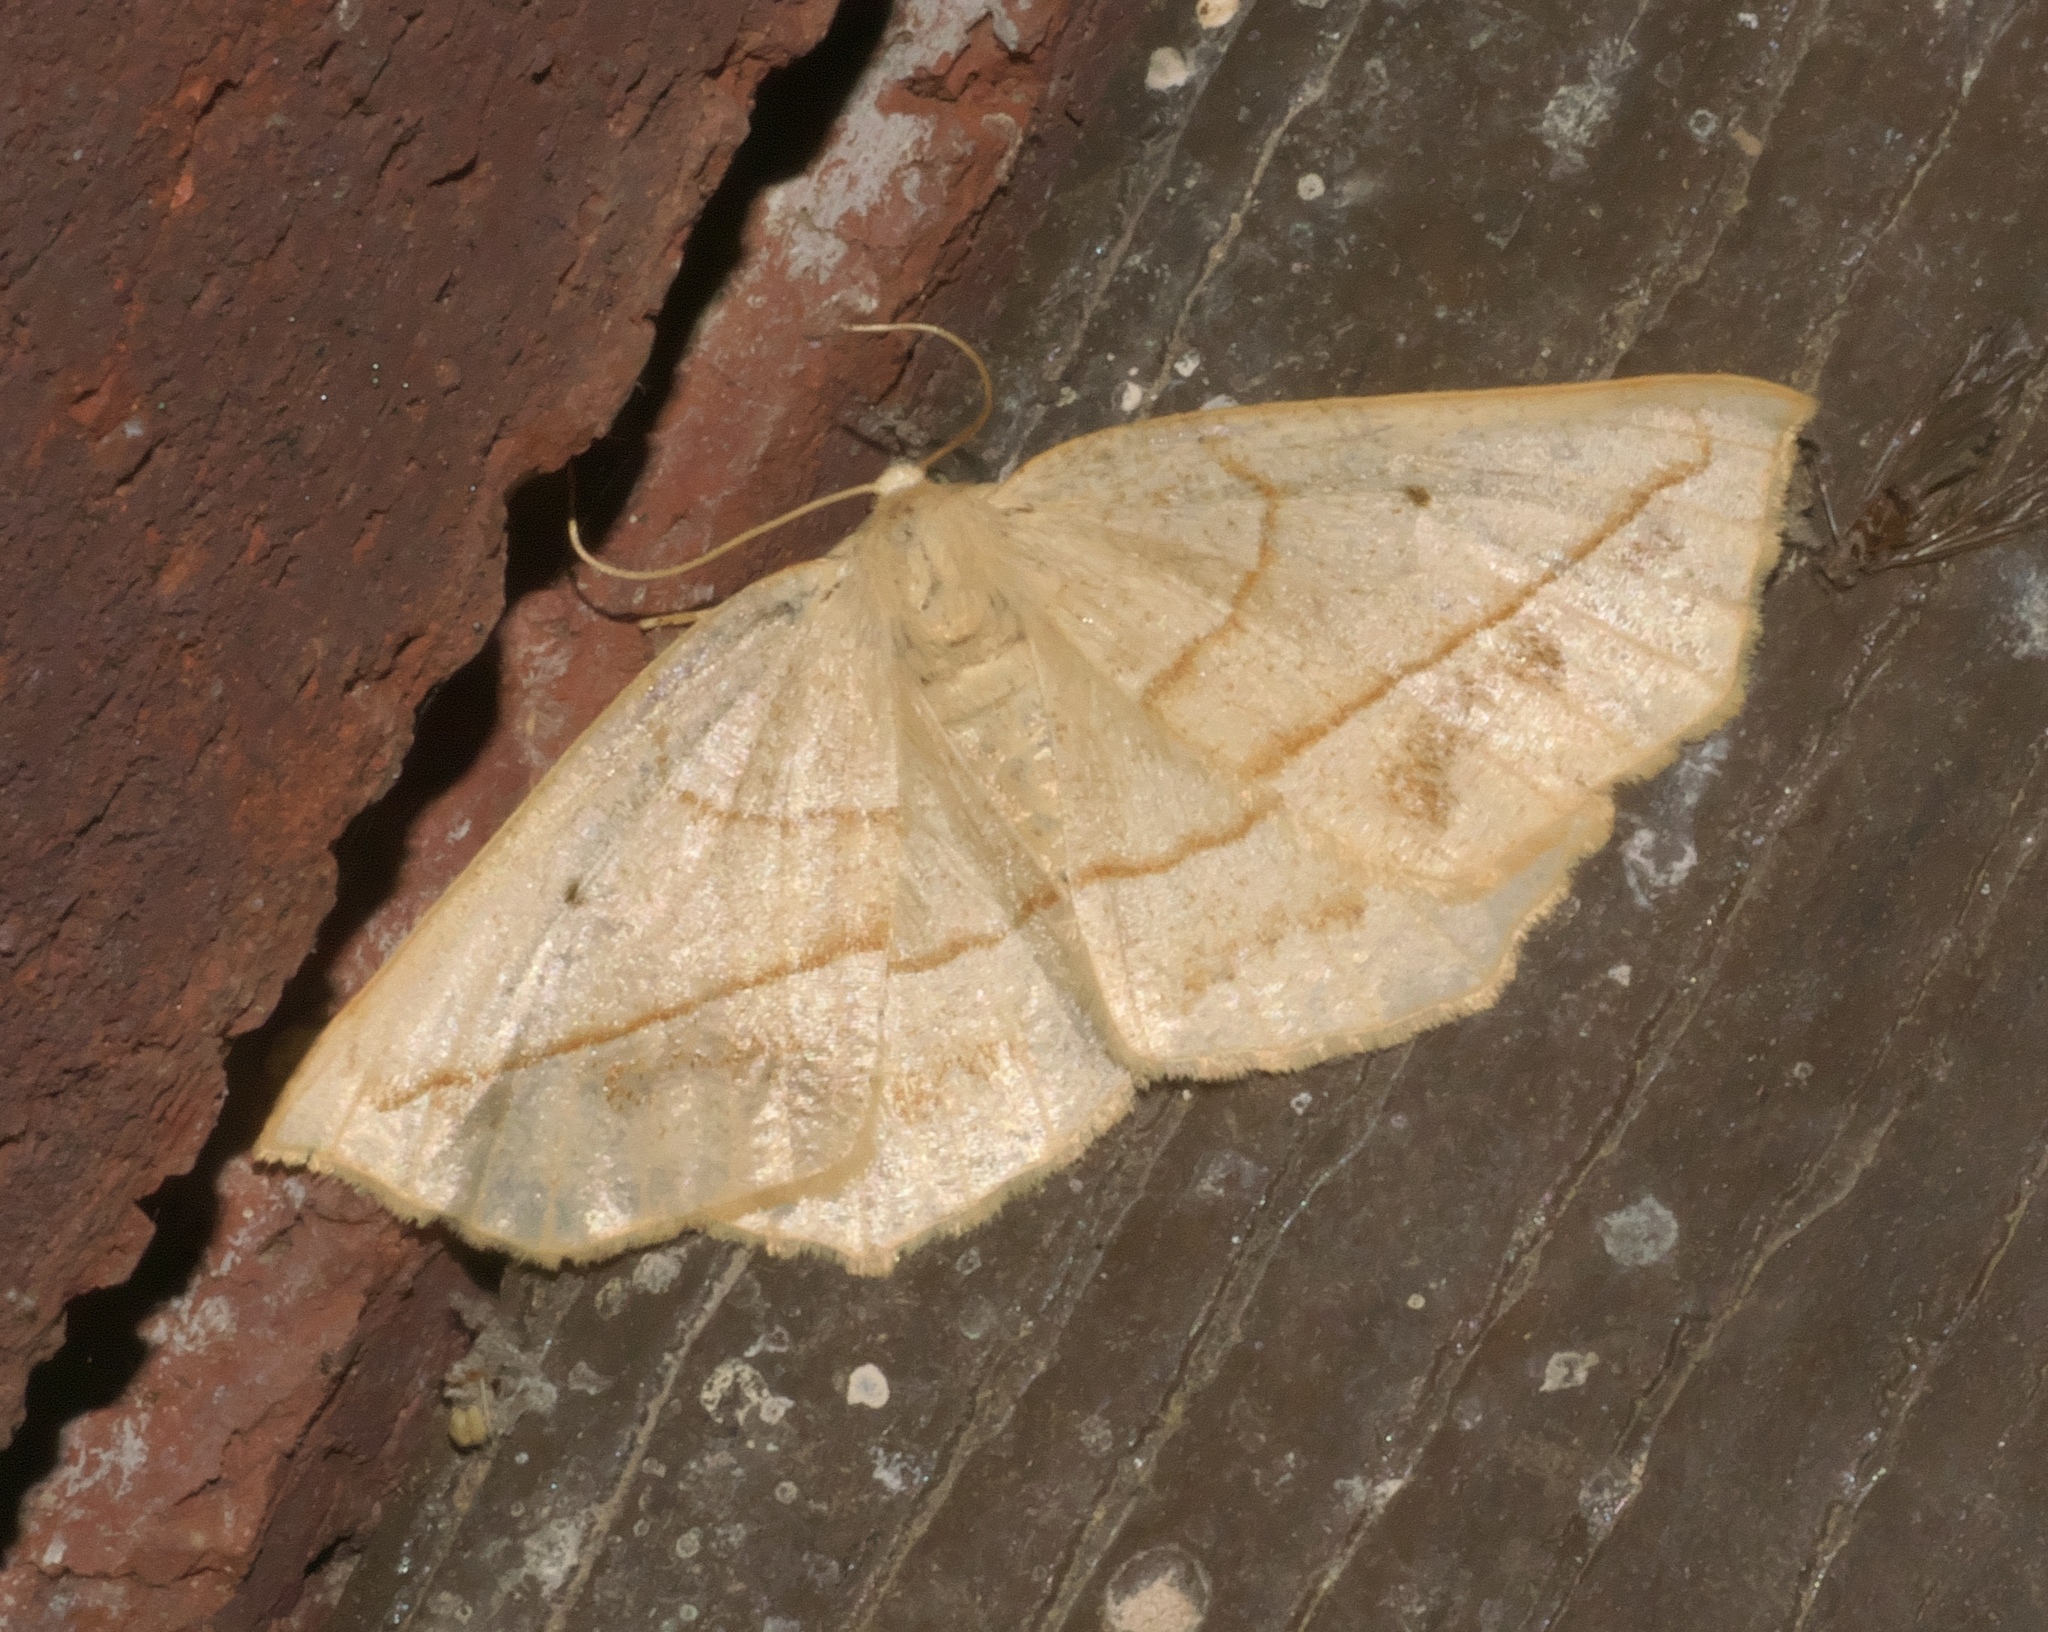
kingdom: Animalia
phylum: Arthropoda
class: Insecta
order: Lepidoptera
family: Geometridae
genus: Eusarca
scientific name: Eusarca confusaria
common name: Confused eusarca
